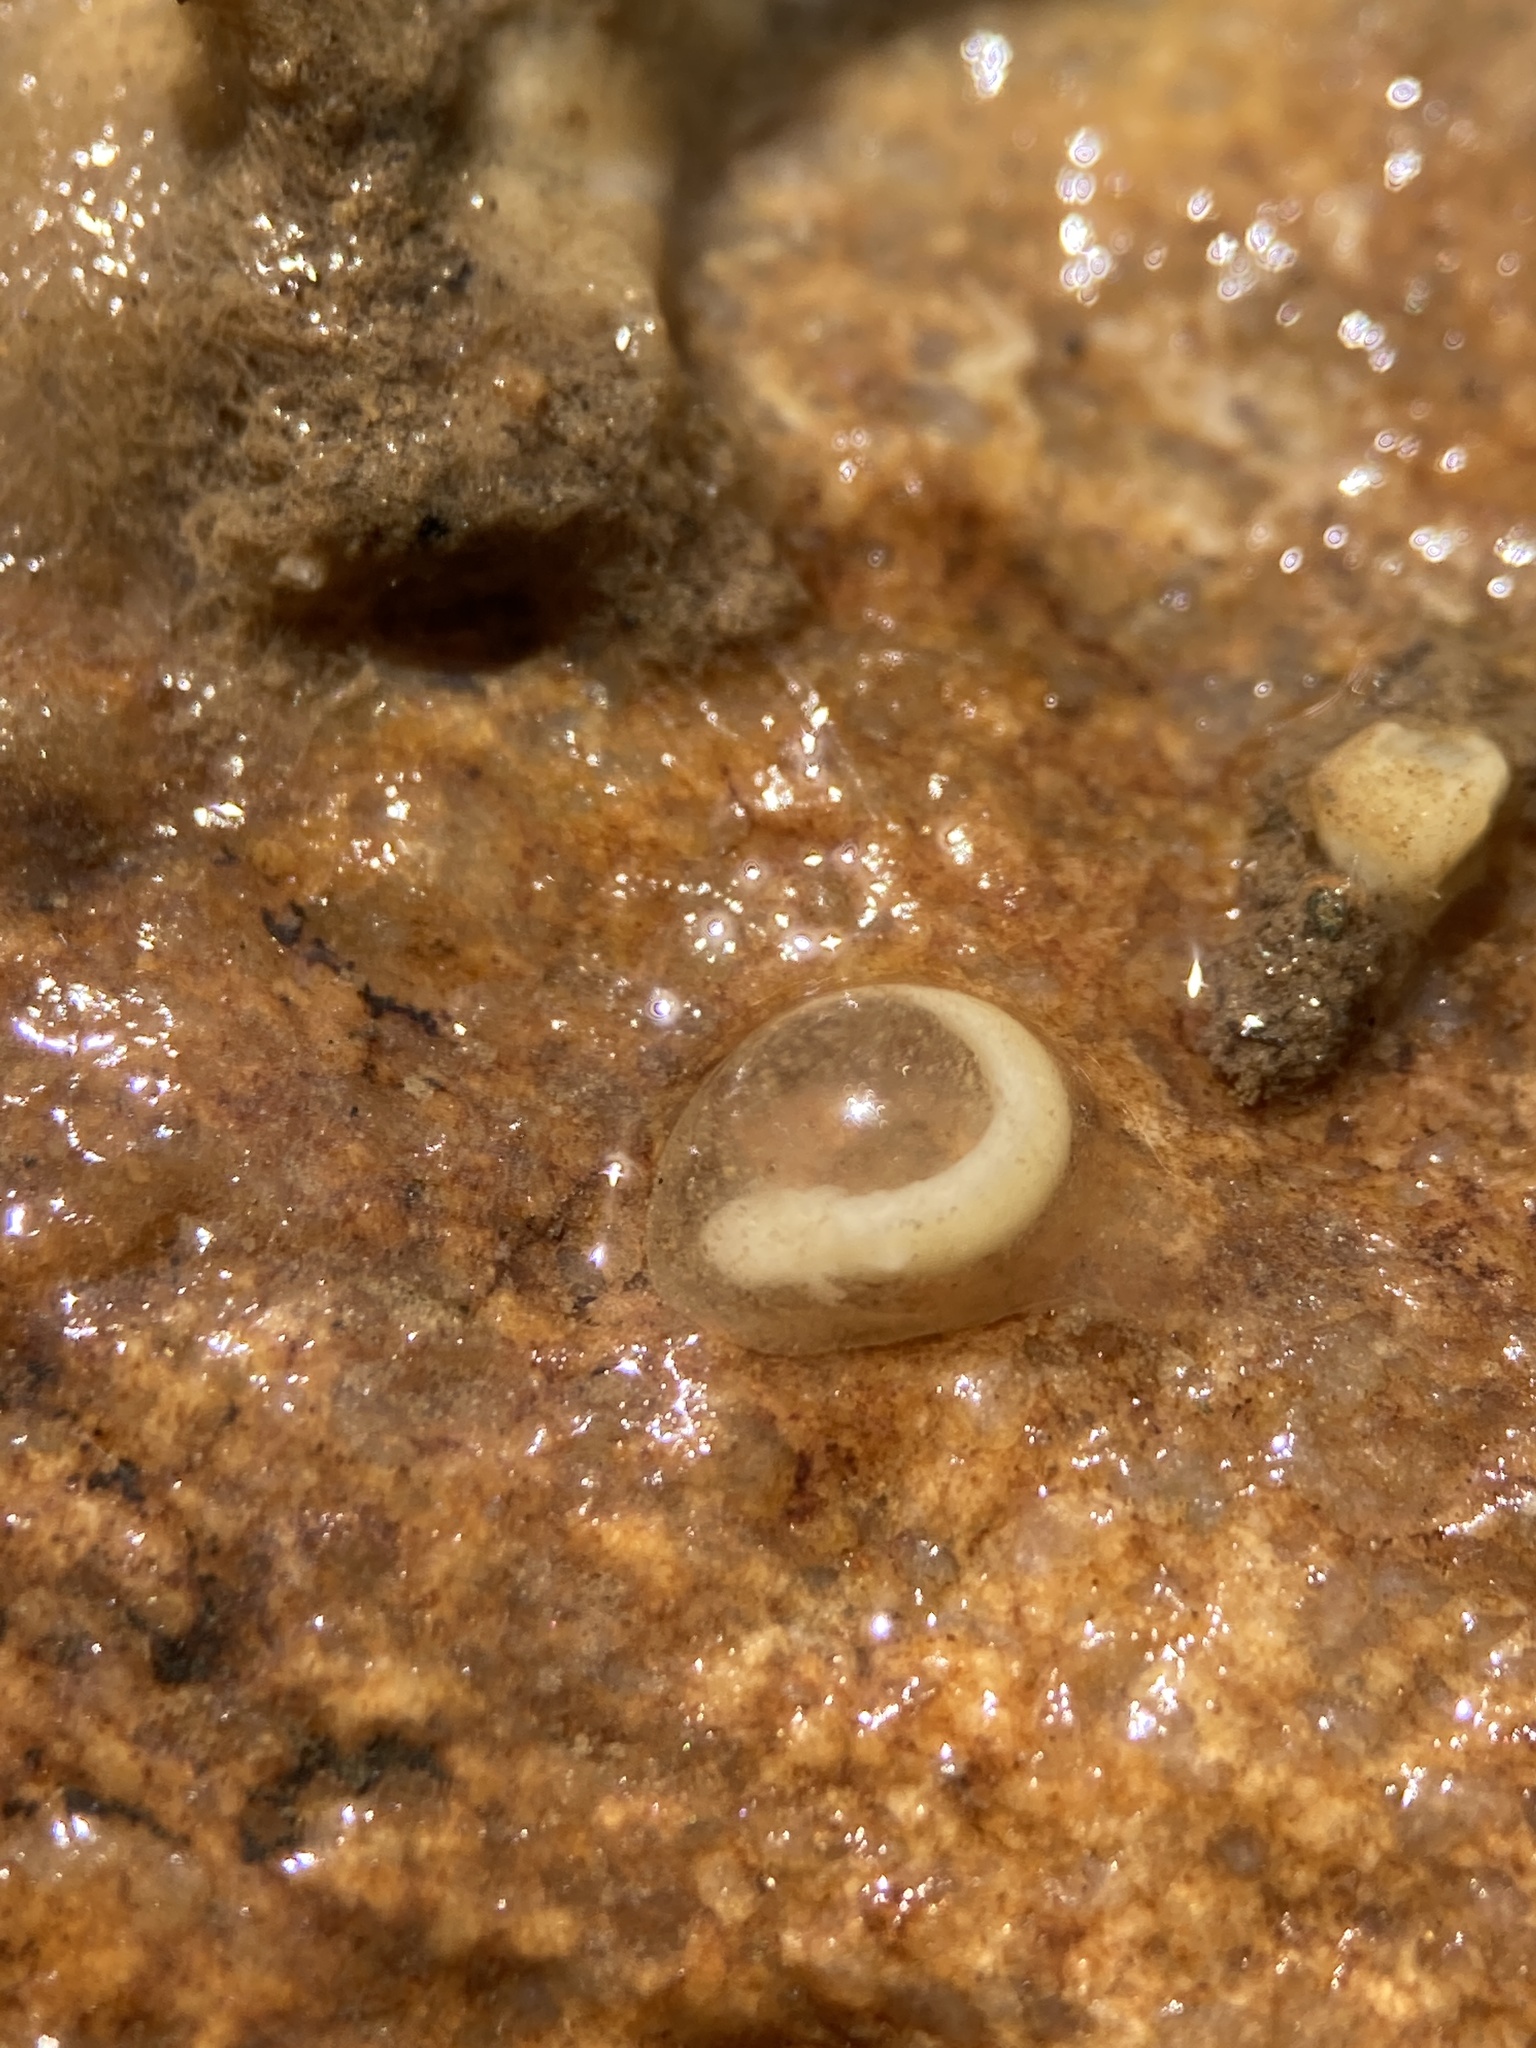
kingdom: Animalia
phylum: Chordata
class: Amphibia
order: Caudata
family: Plethodontidae
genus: Eurycea
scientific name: Eurycea bislineata
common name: Northern two-lined salamander
